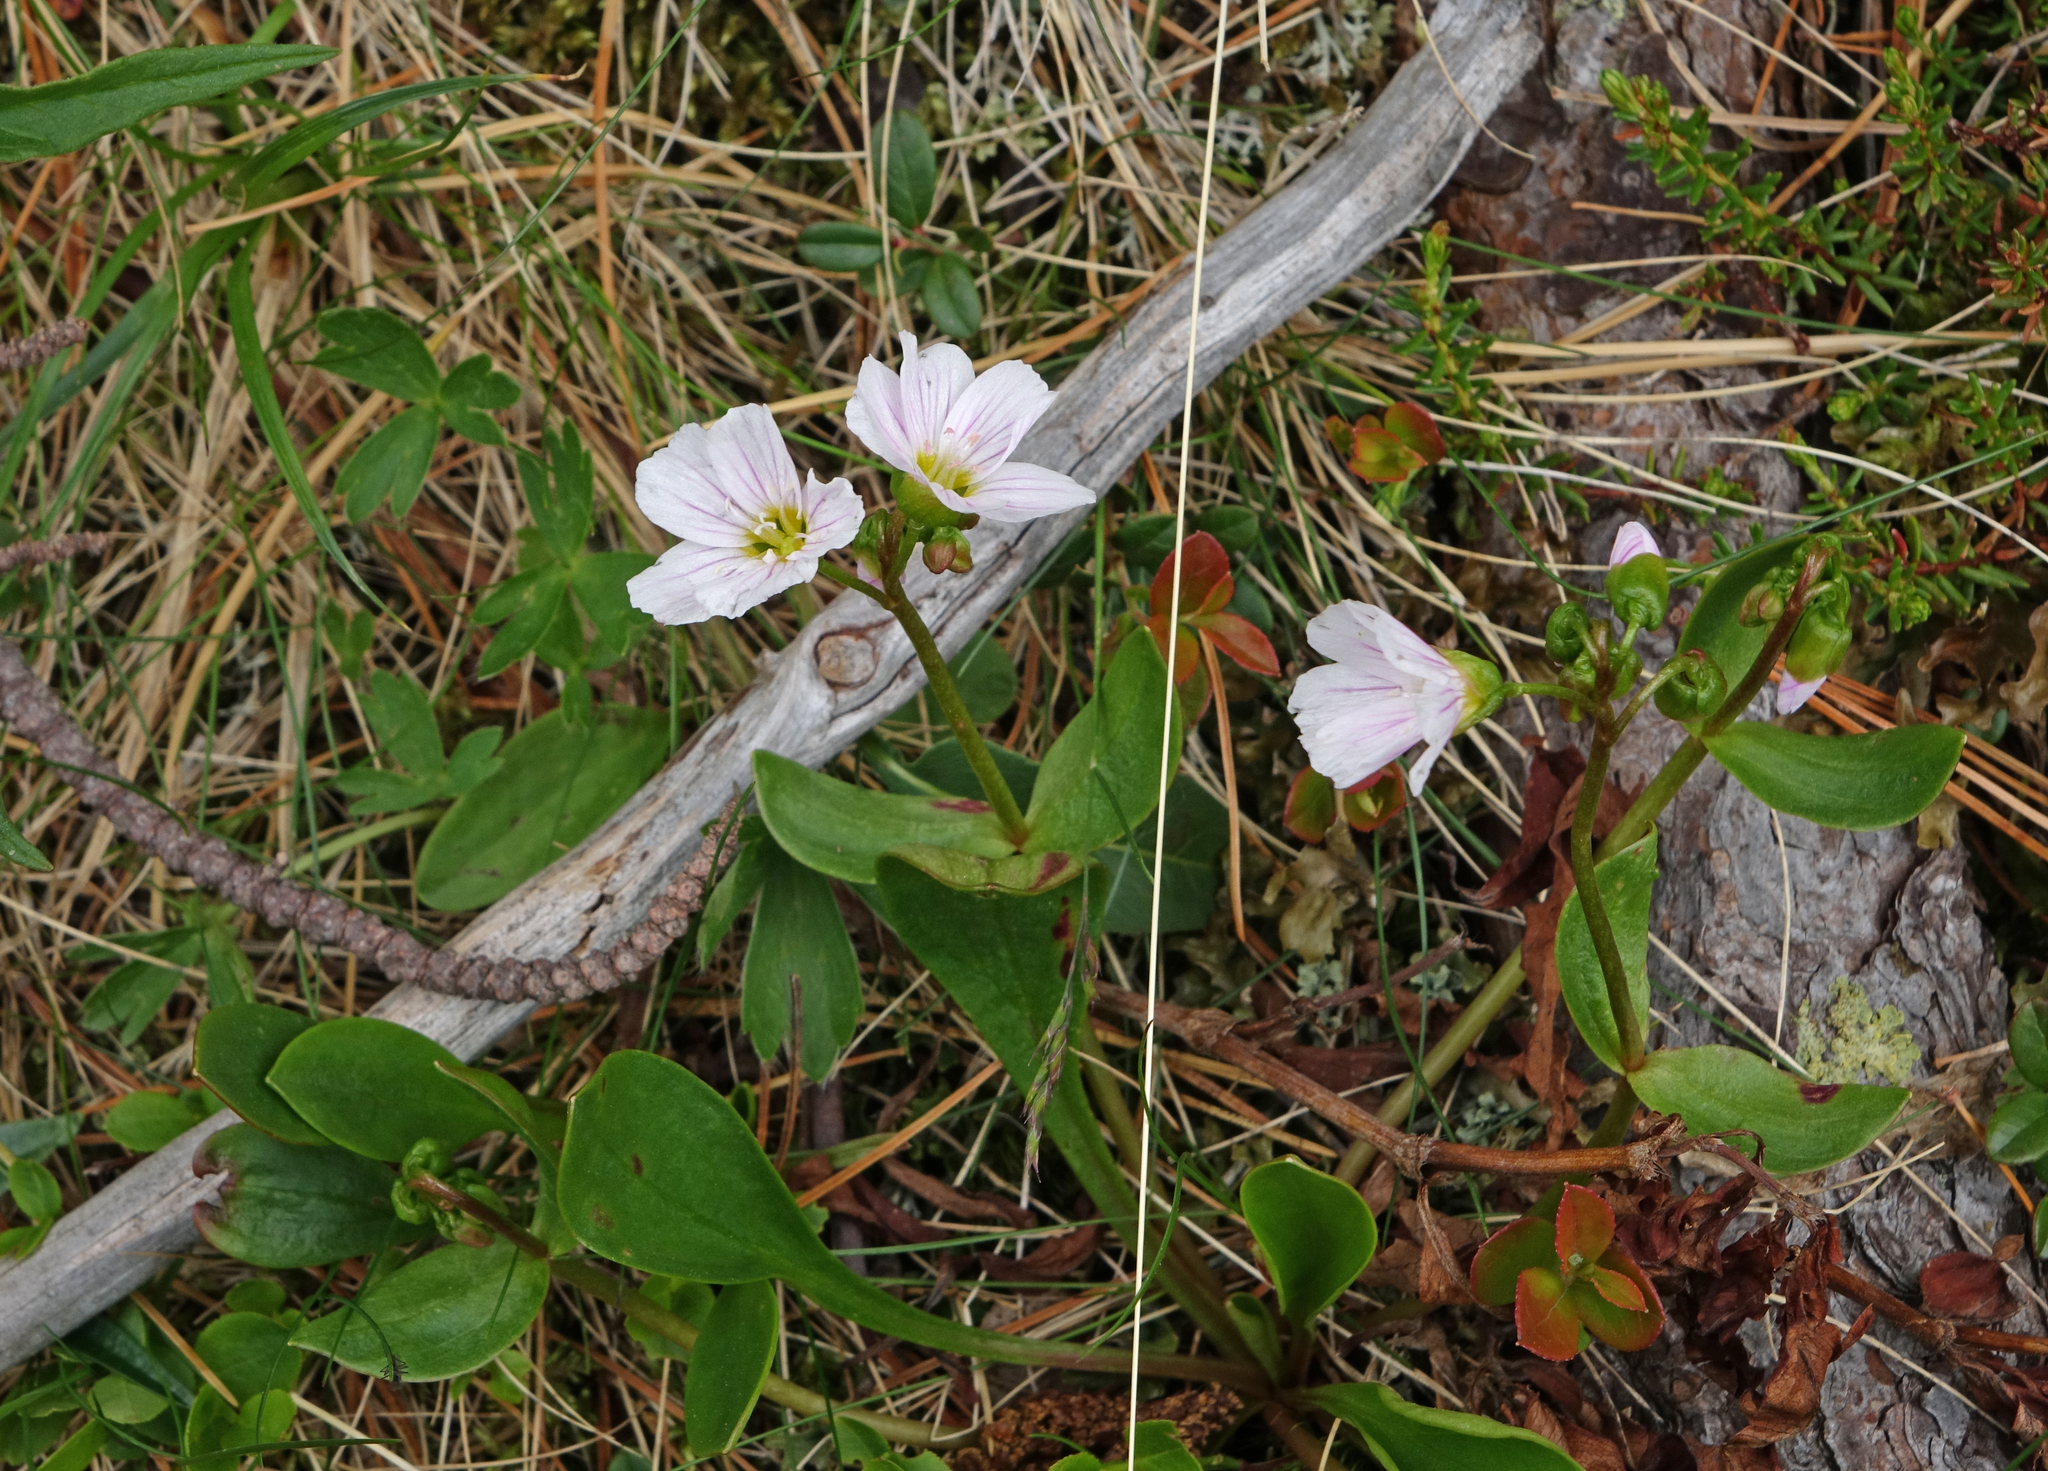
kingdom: Plantae
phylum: Tracheophyta
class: Magnoliopsida
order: Caryophyllales
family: Montiaceae
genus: Claytonia
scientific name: Claytonia joanneana
